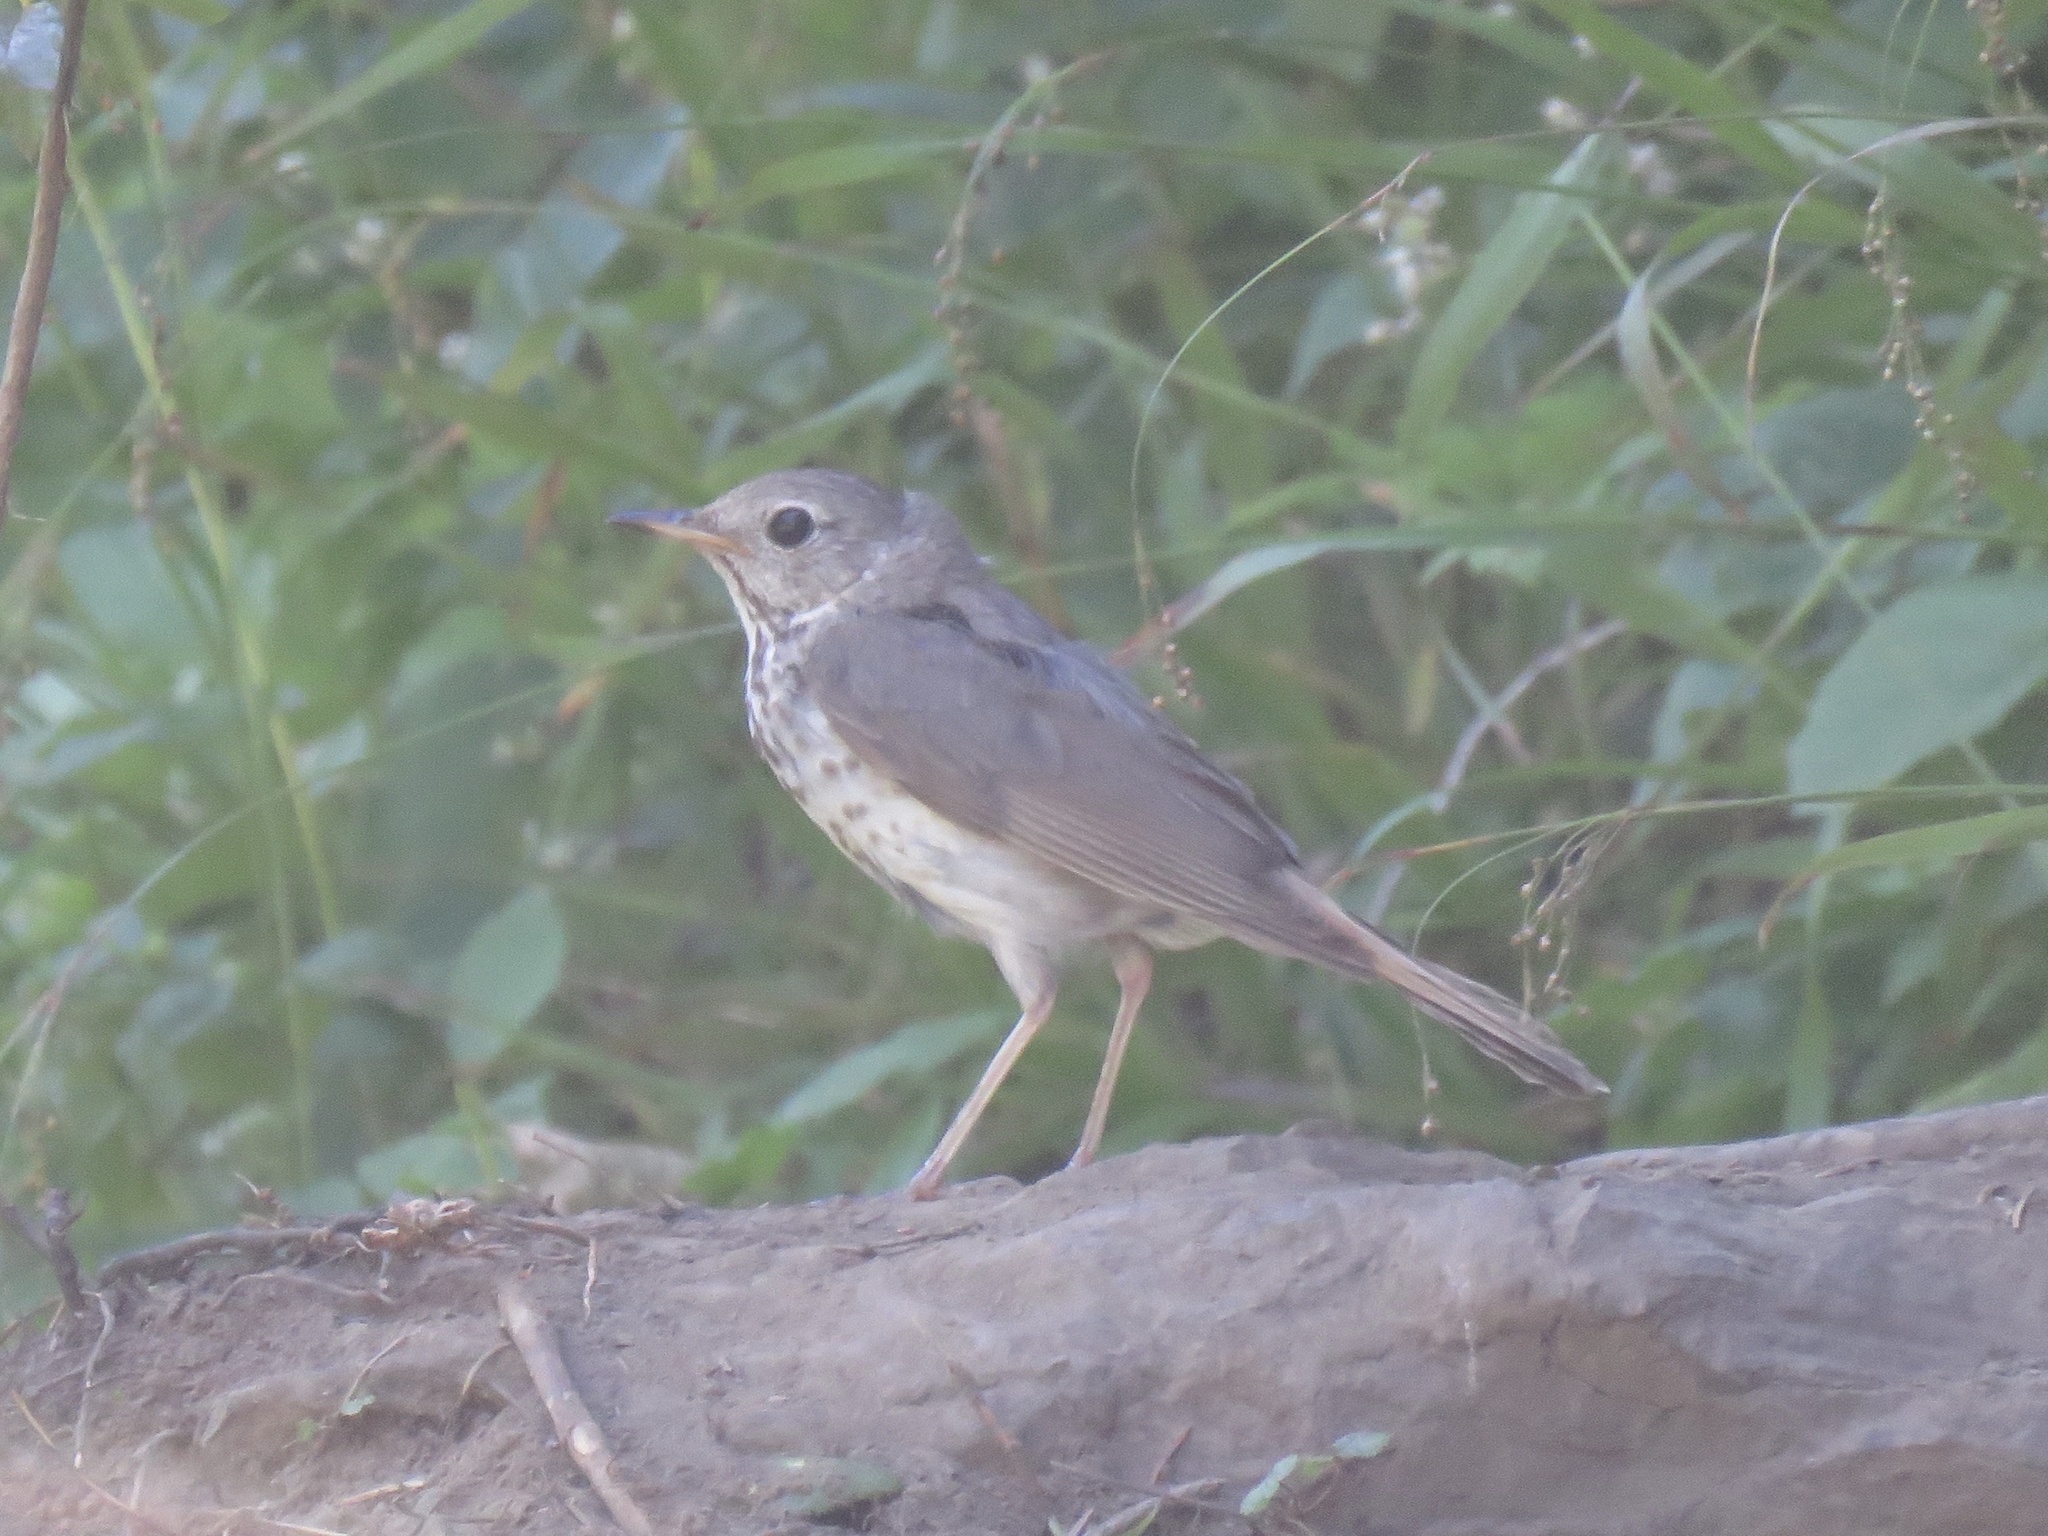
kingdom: Animalia
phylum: Chordata
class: Aves
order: Passeriformes
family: Turdidae
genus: Catharus
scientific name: Catharus guttatus
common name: Hermit thrush
